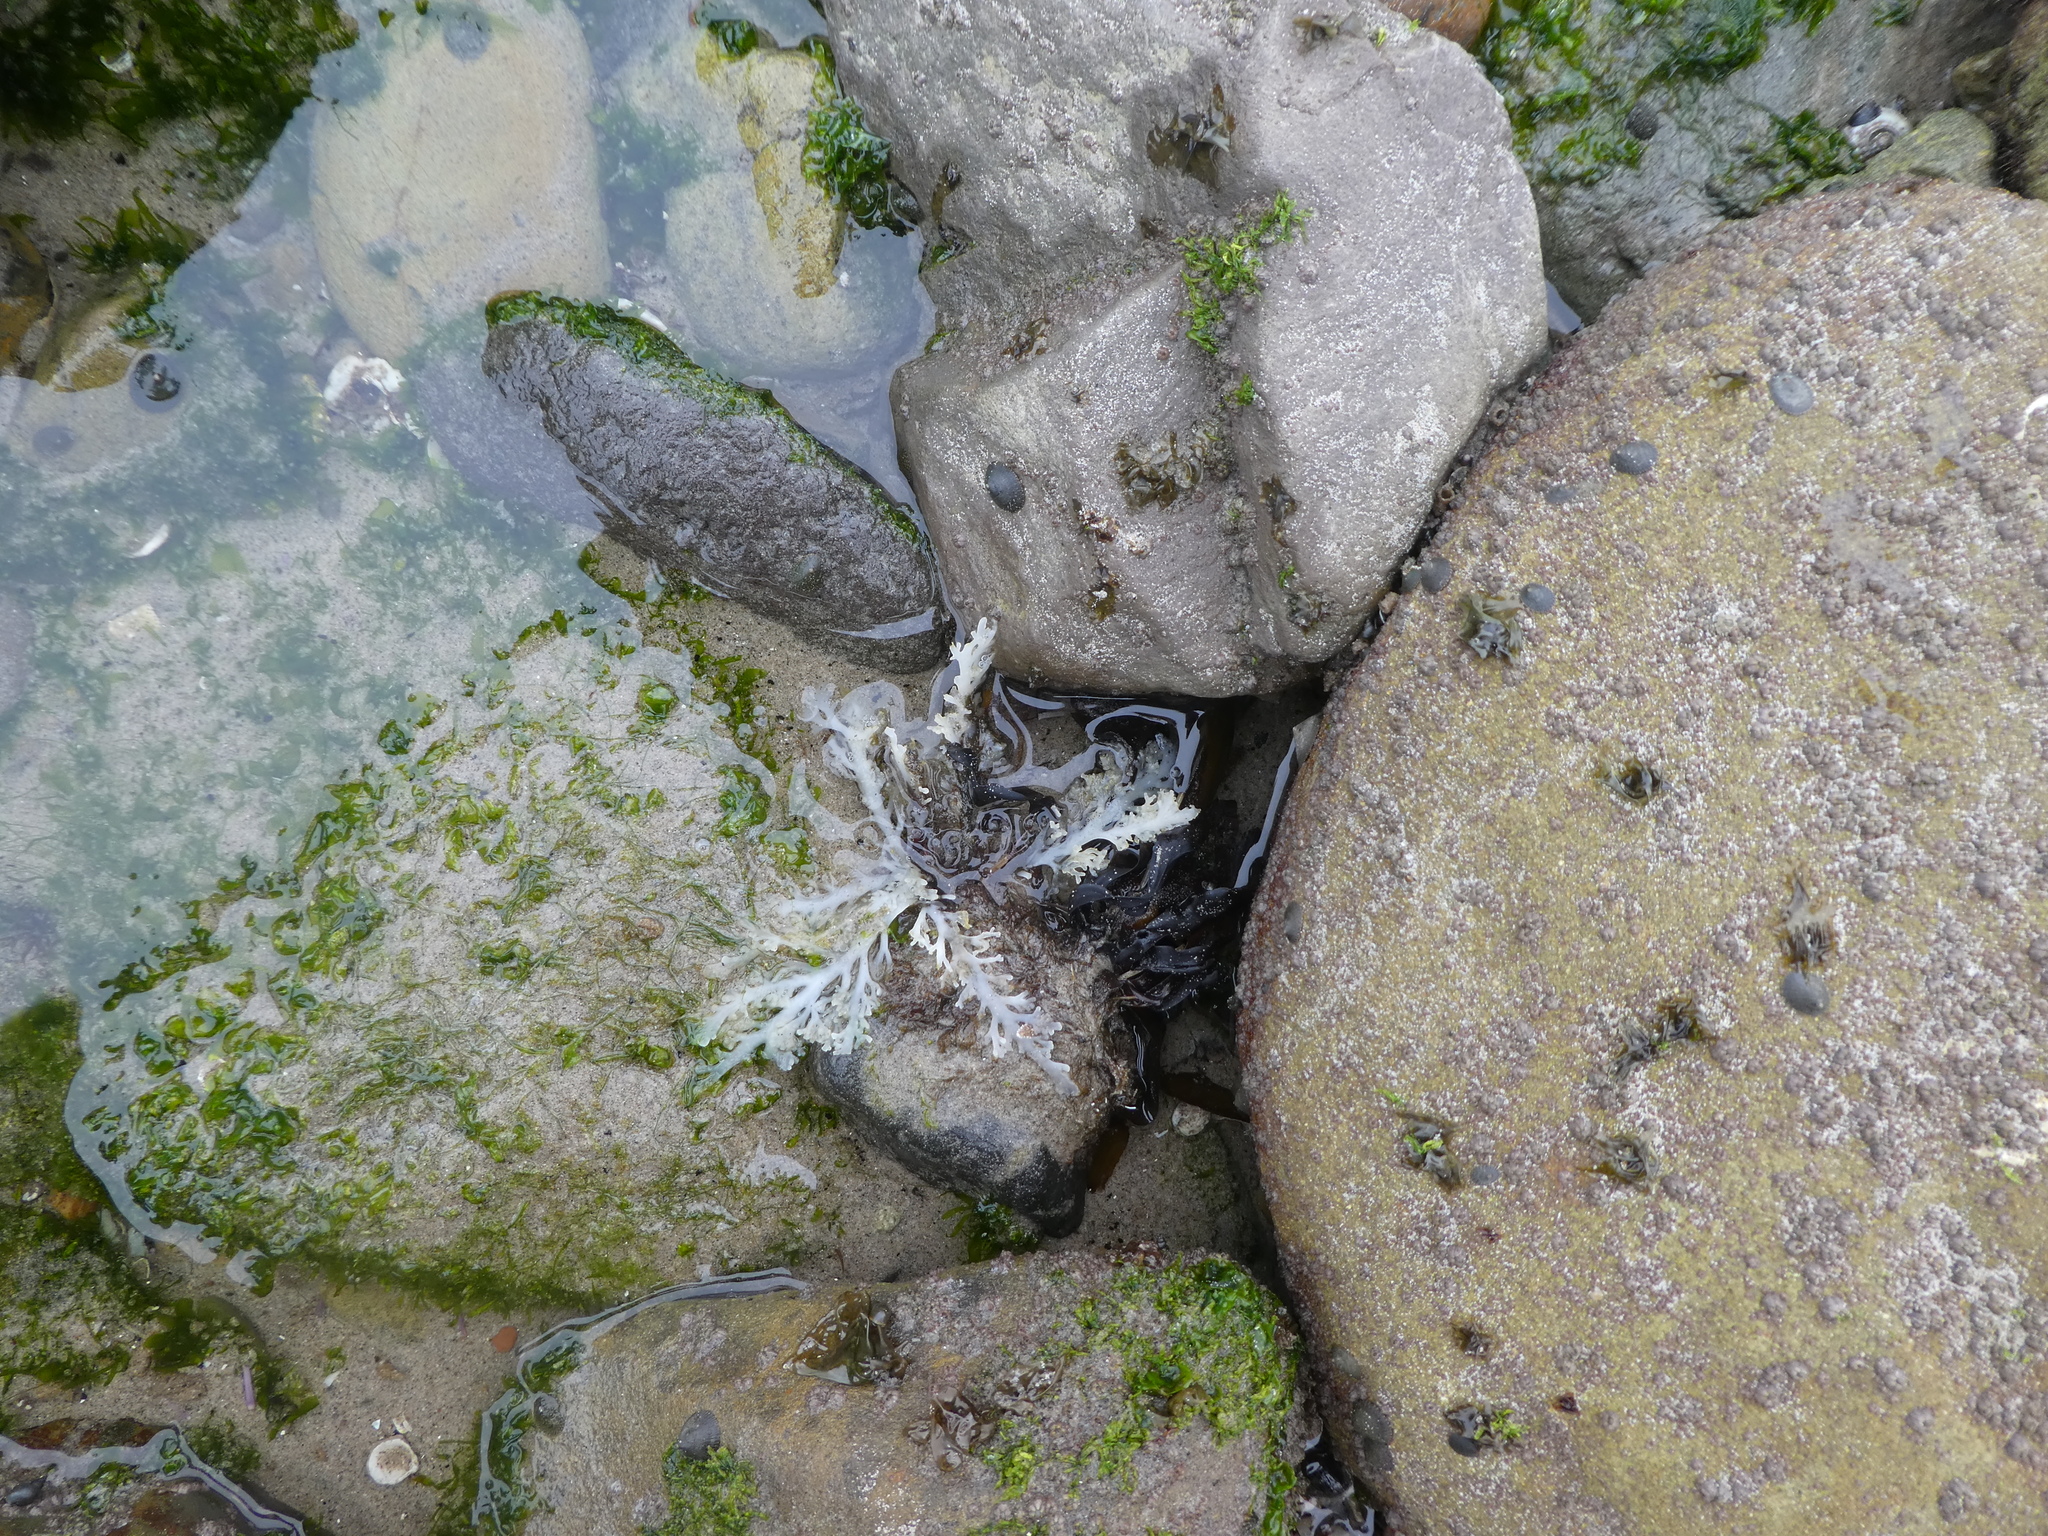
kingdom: Plantae
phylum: Rhodophyta
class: Florideophyceae
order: Ceramiales
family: Rhodomelaceae
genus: Osmundea
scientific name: Osmundea spectabilis
